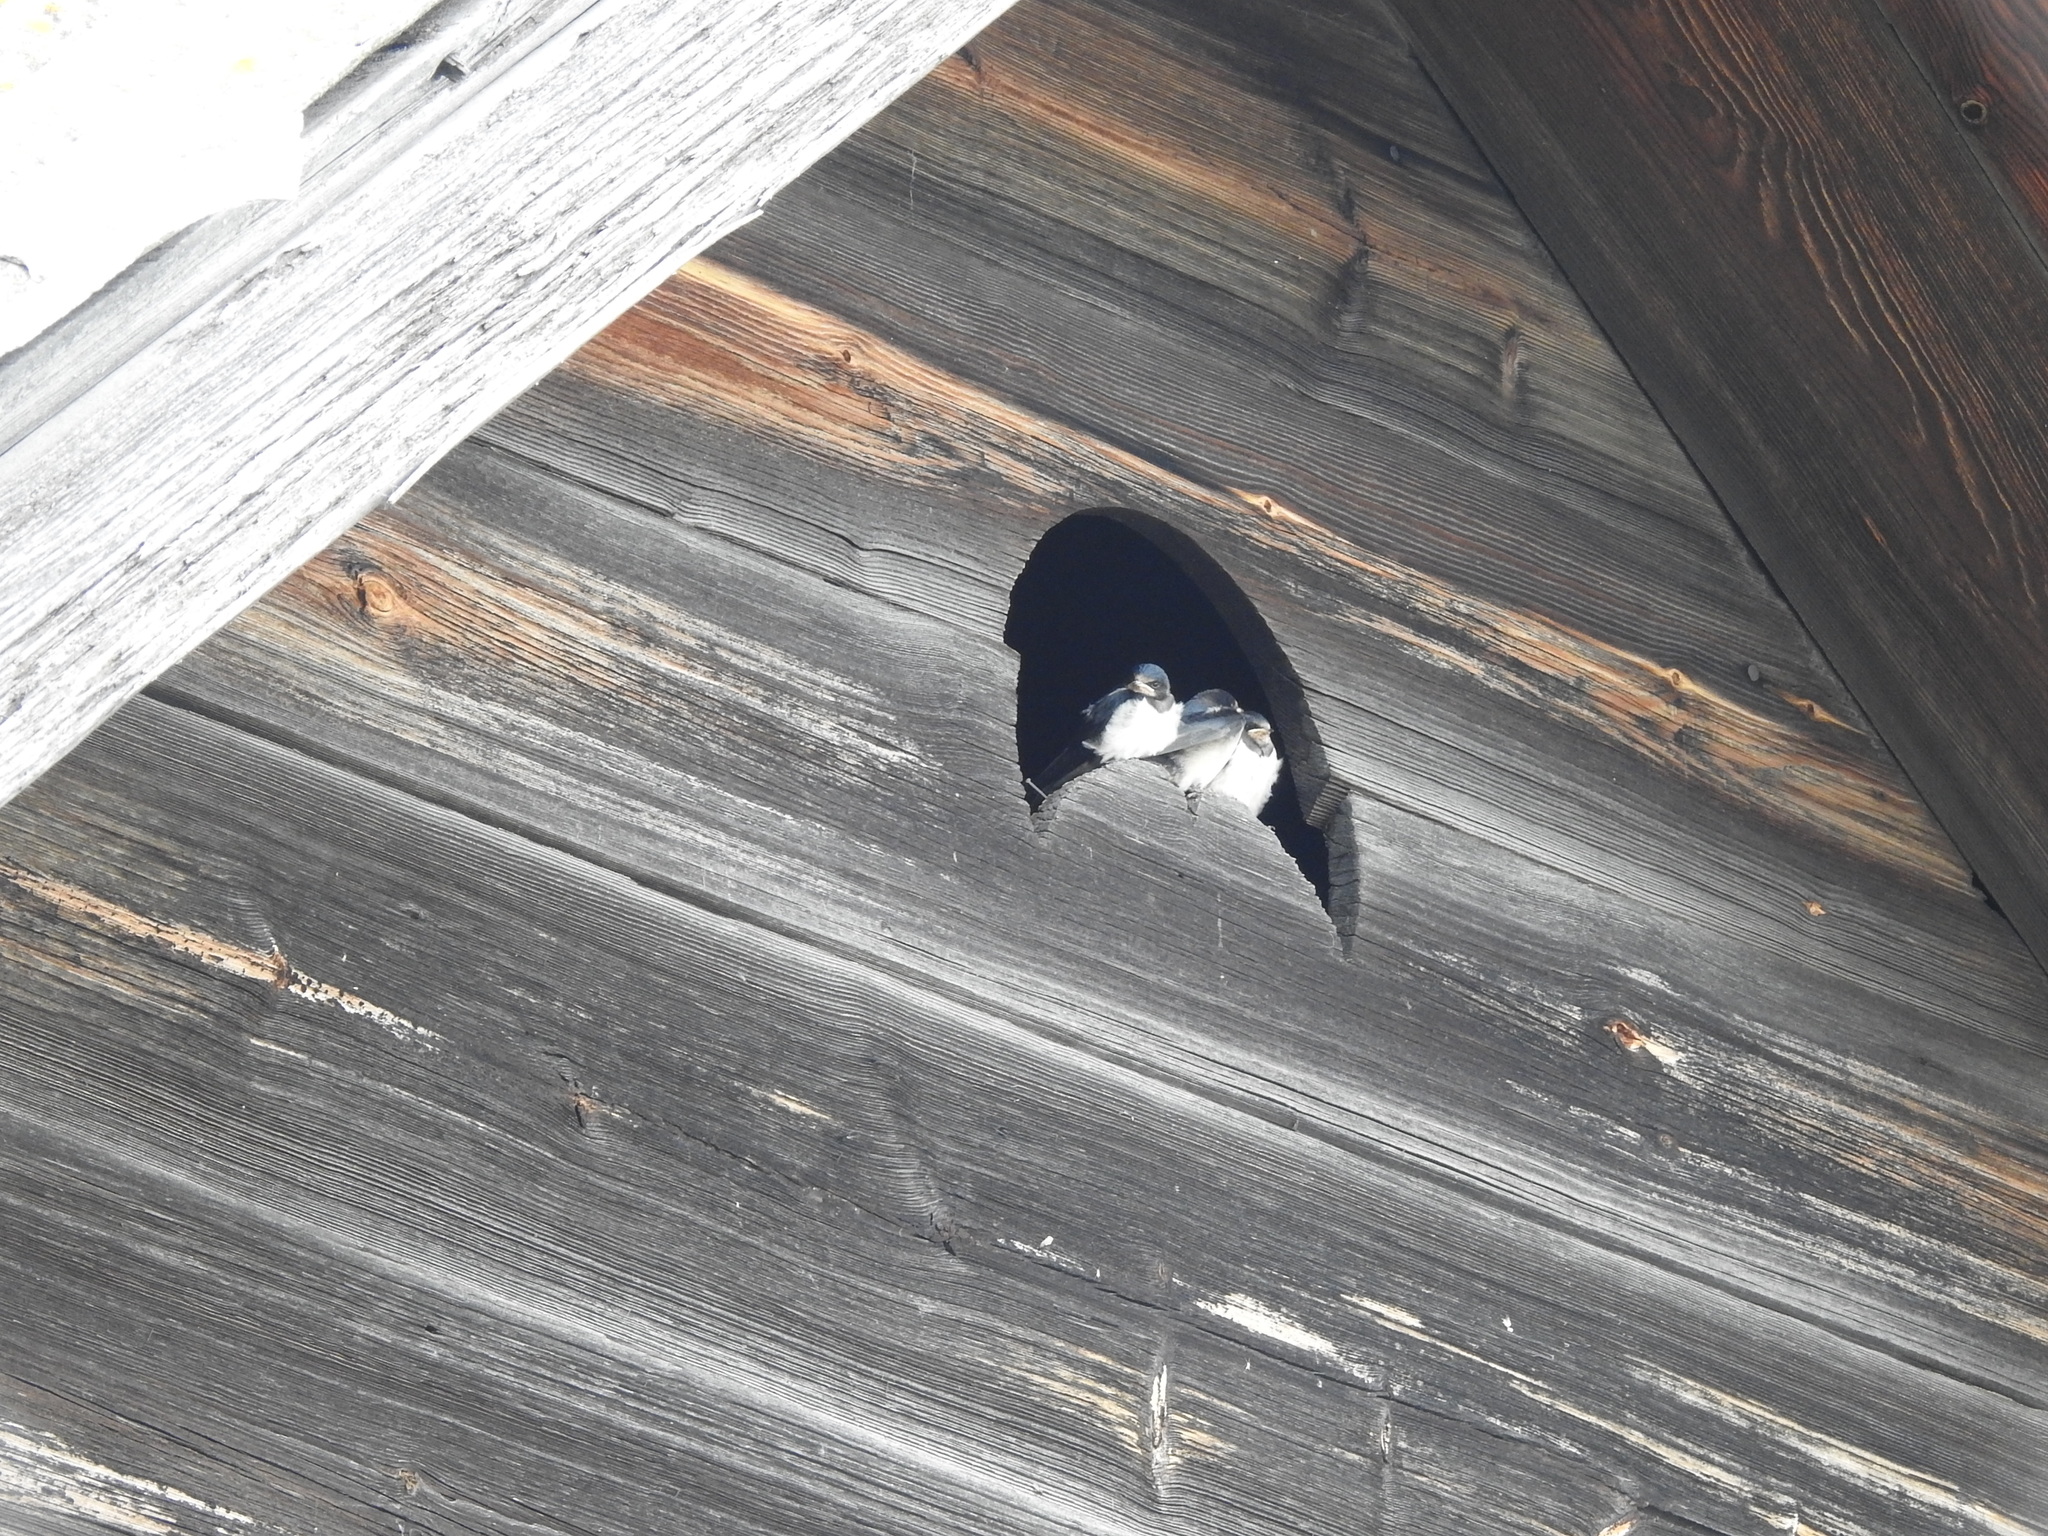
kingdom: Animalia
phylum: Chordata
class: Aves
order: Passeriformes
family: Hirundinidae
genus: Hirundo
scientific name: Hirundo rustica
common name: Barn swallow
